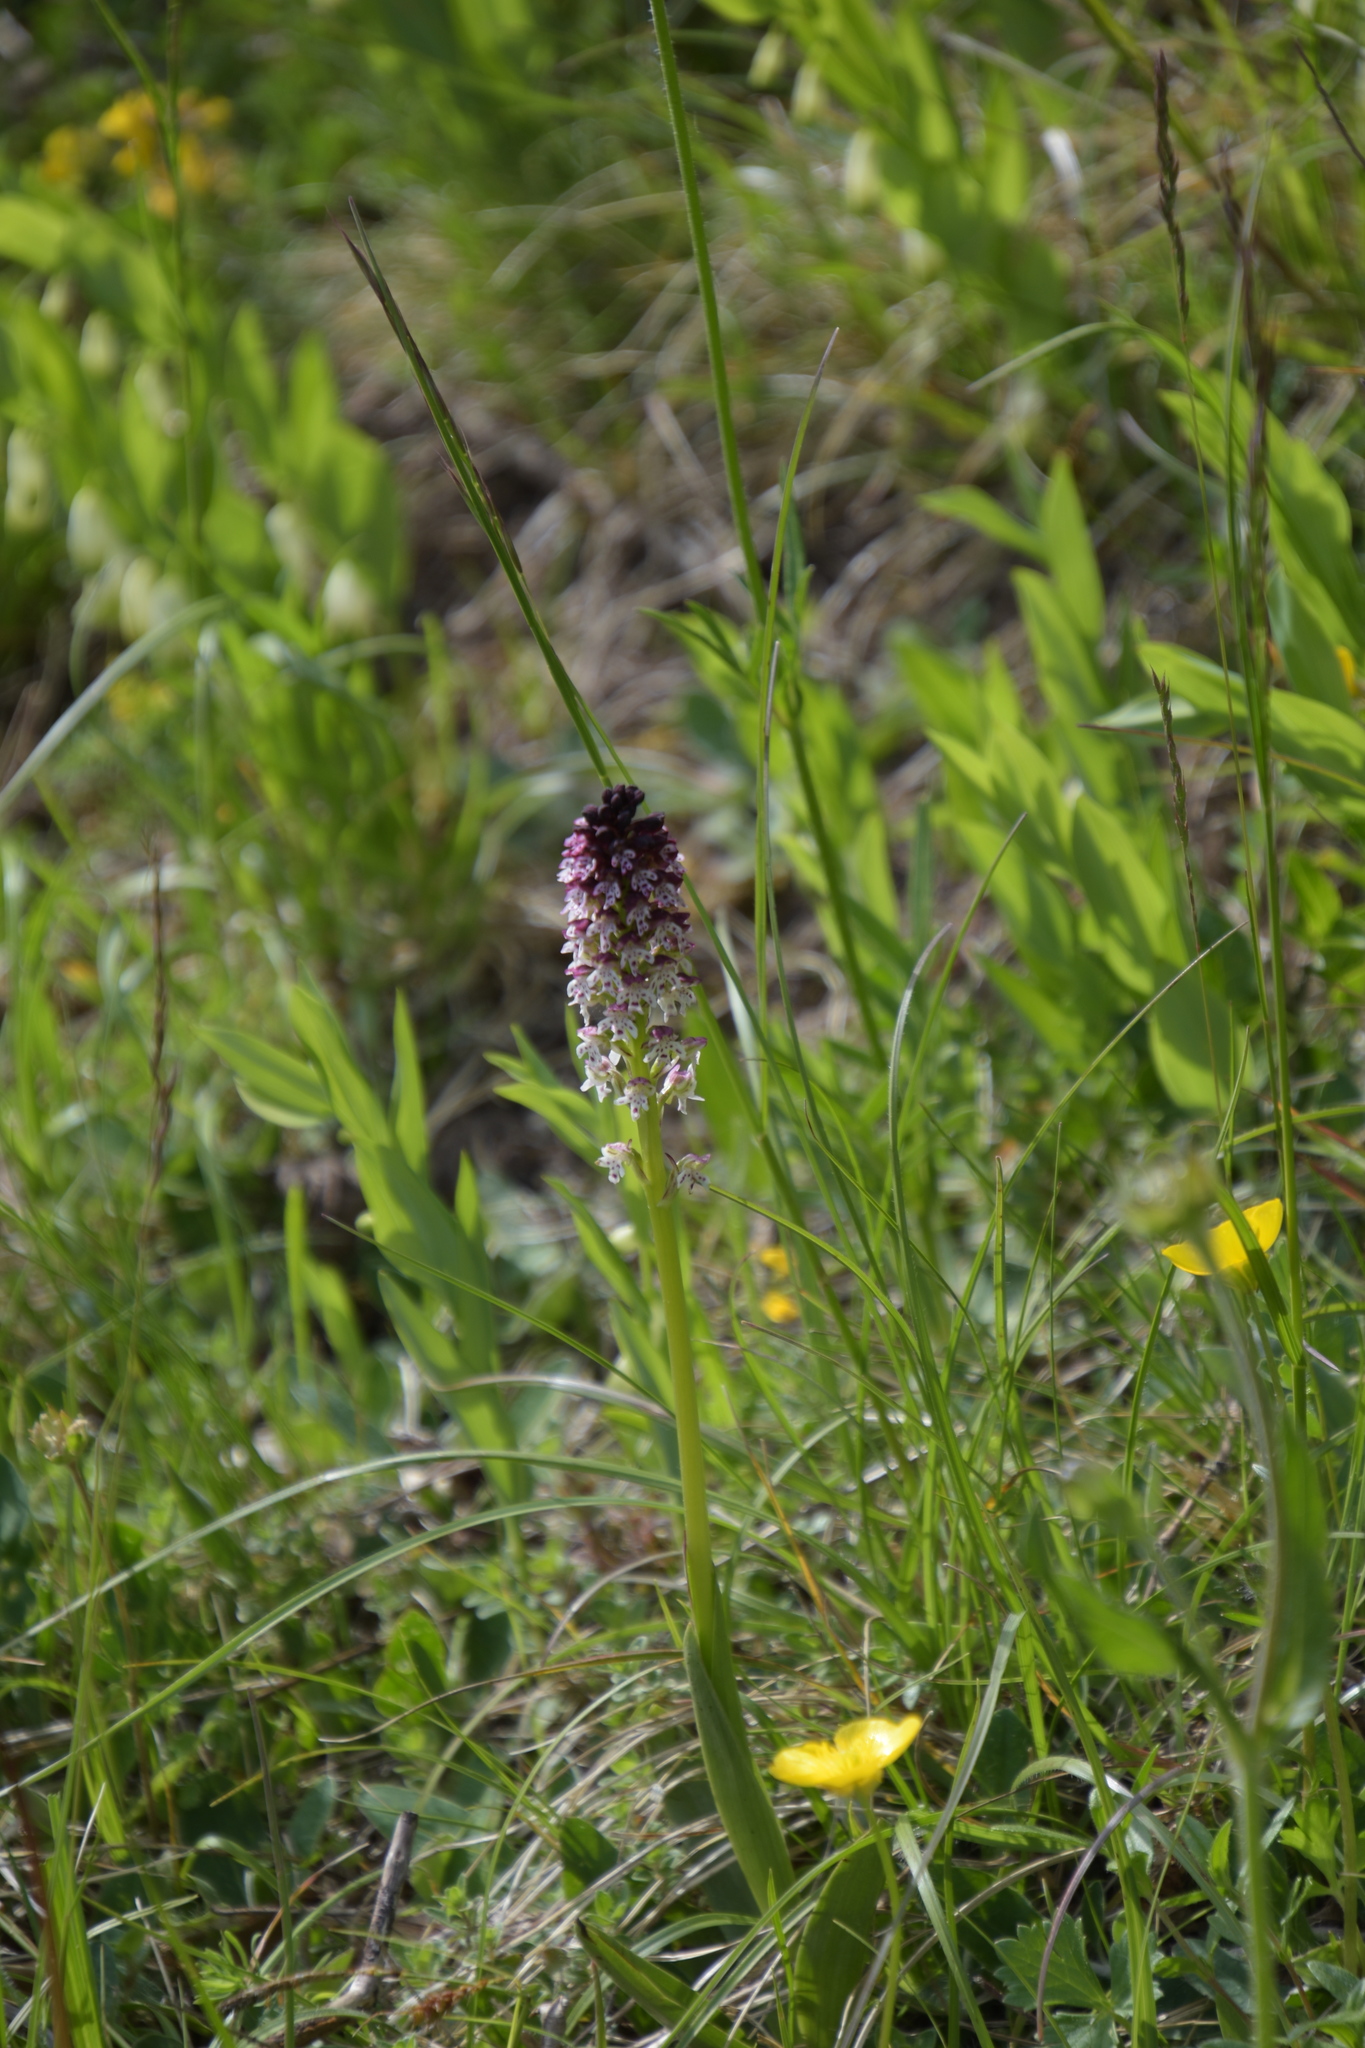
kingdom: Plantae
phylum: Tracheophyta
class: Liliopsida
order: Asparagales
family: Orchidaceae
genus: Neotinea
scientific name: Neotinea ustulata
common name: Burnt orchid
